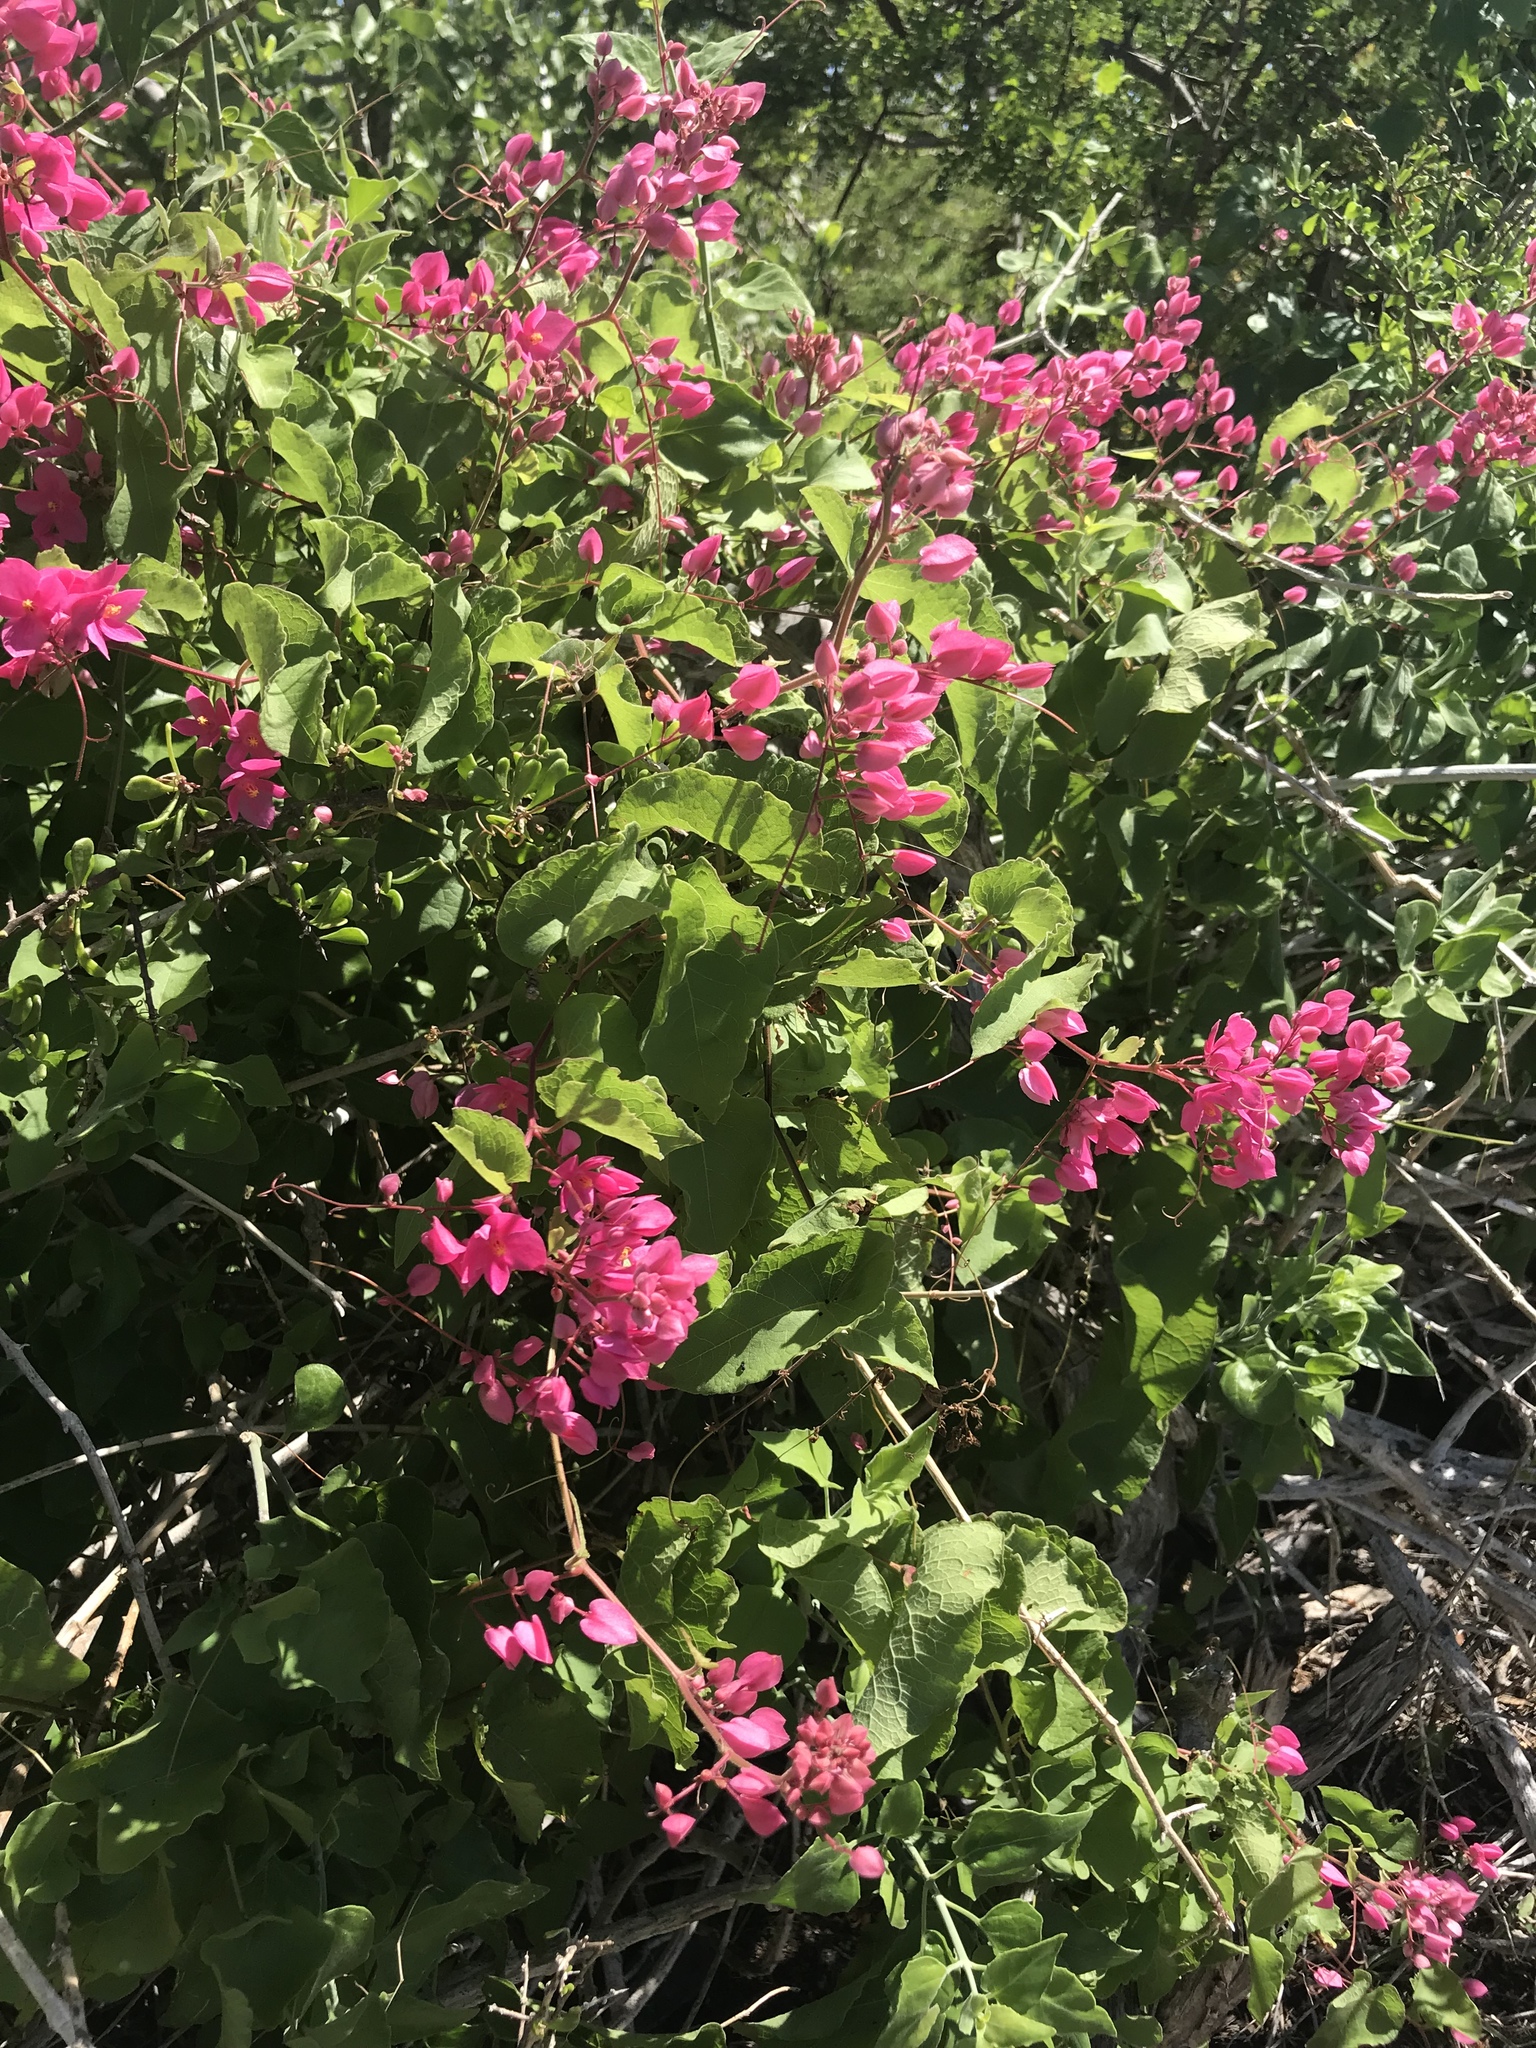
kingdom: Plantae
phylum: Tracheophyta
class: Magnoliopsida
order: Caryophyllales
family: Polygonaceae
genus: Antigonon
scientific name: Antigonon leptopus
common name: Coral vine
